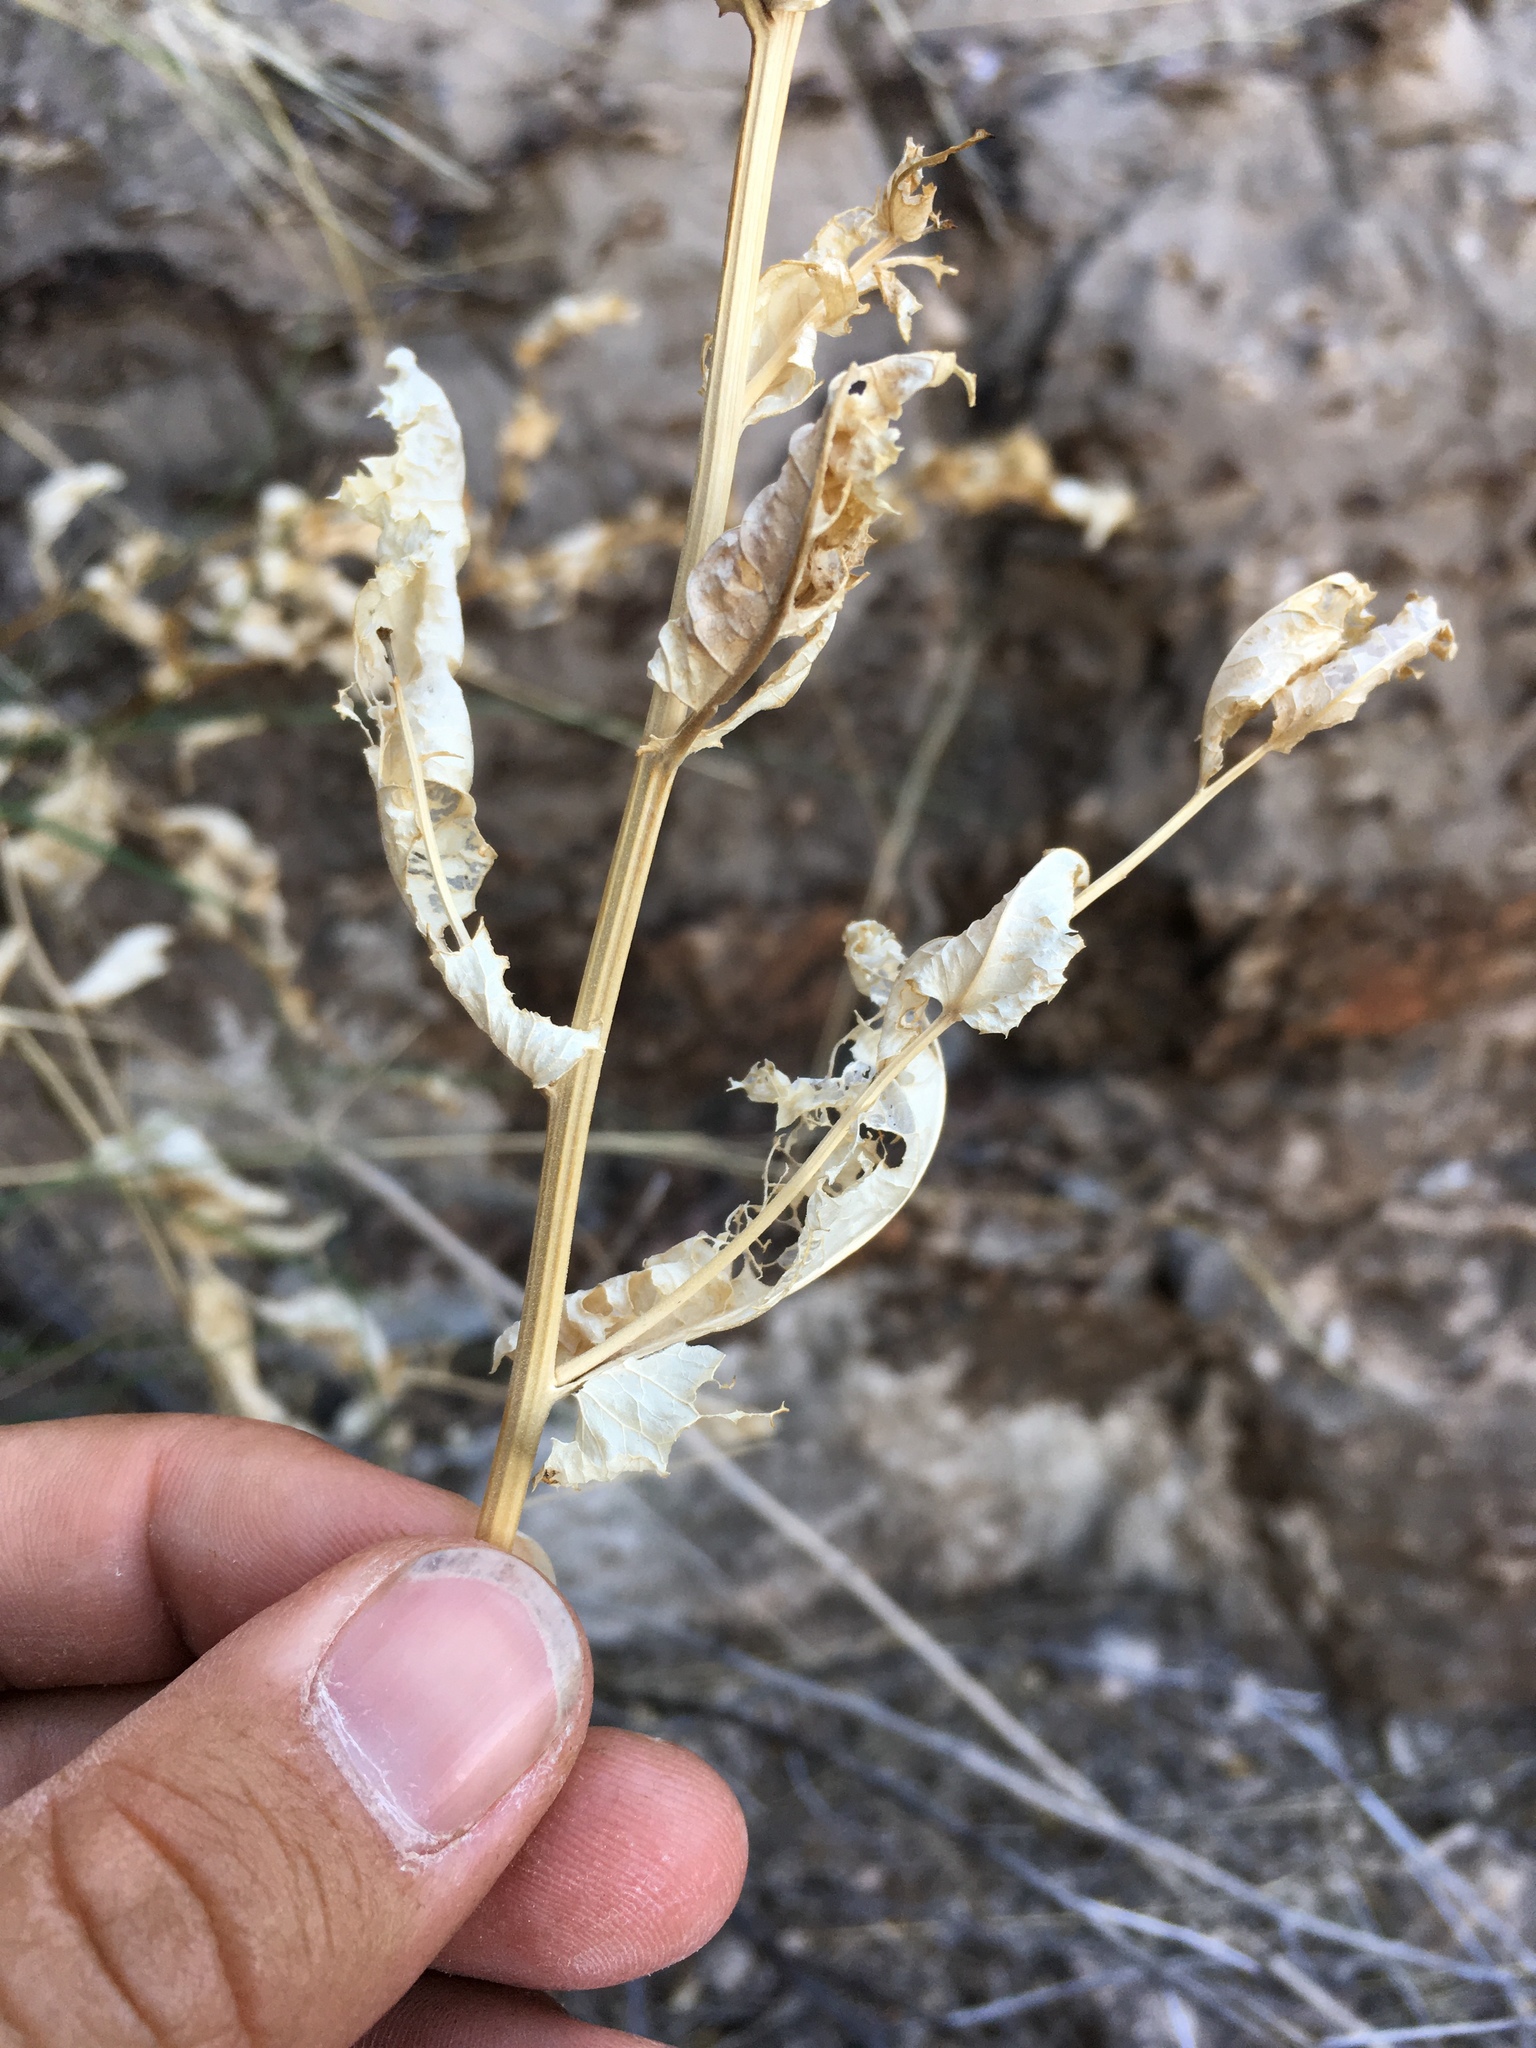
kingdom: Plantae
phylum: Tracheophyta
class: Magnoliopsida
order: Asterales
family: Asteraceae
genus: Acourtia
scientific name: Acourtia wrightii
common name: Brownfoot
